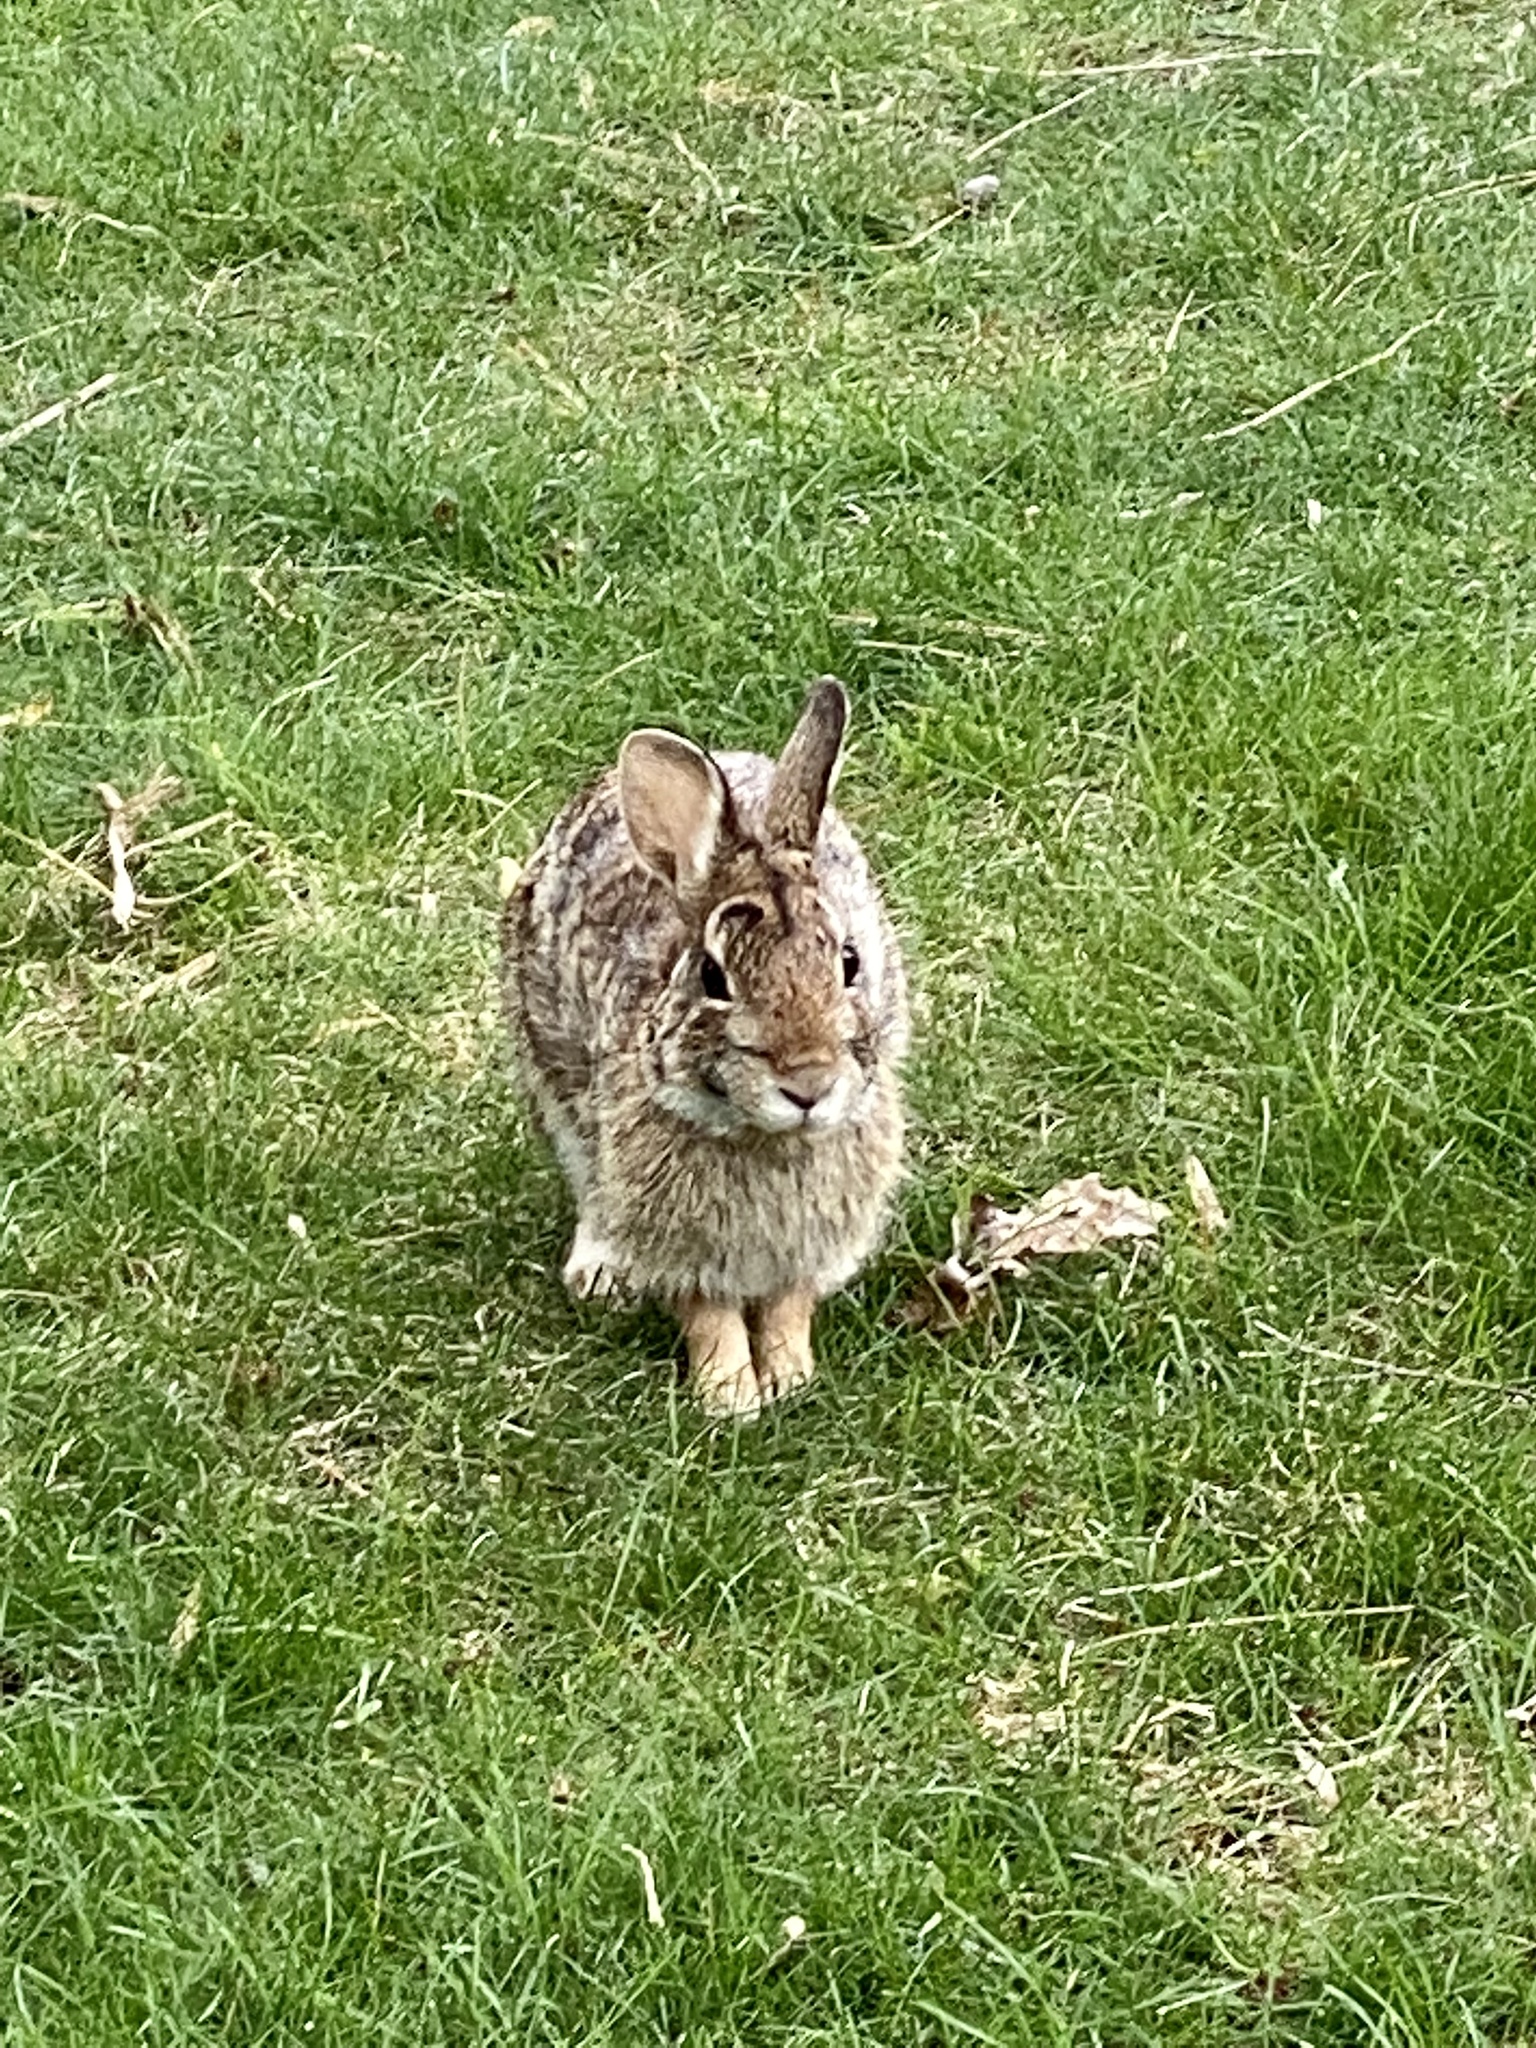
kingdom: Animalia
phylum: Chordata
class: Mammalia
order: Lagomorpha
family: Leporidae
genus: Sylvilagus
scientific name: Sylvilagus floridanus
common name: Eastern cottontail
